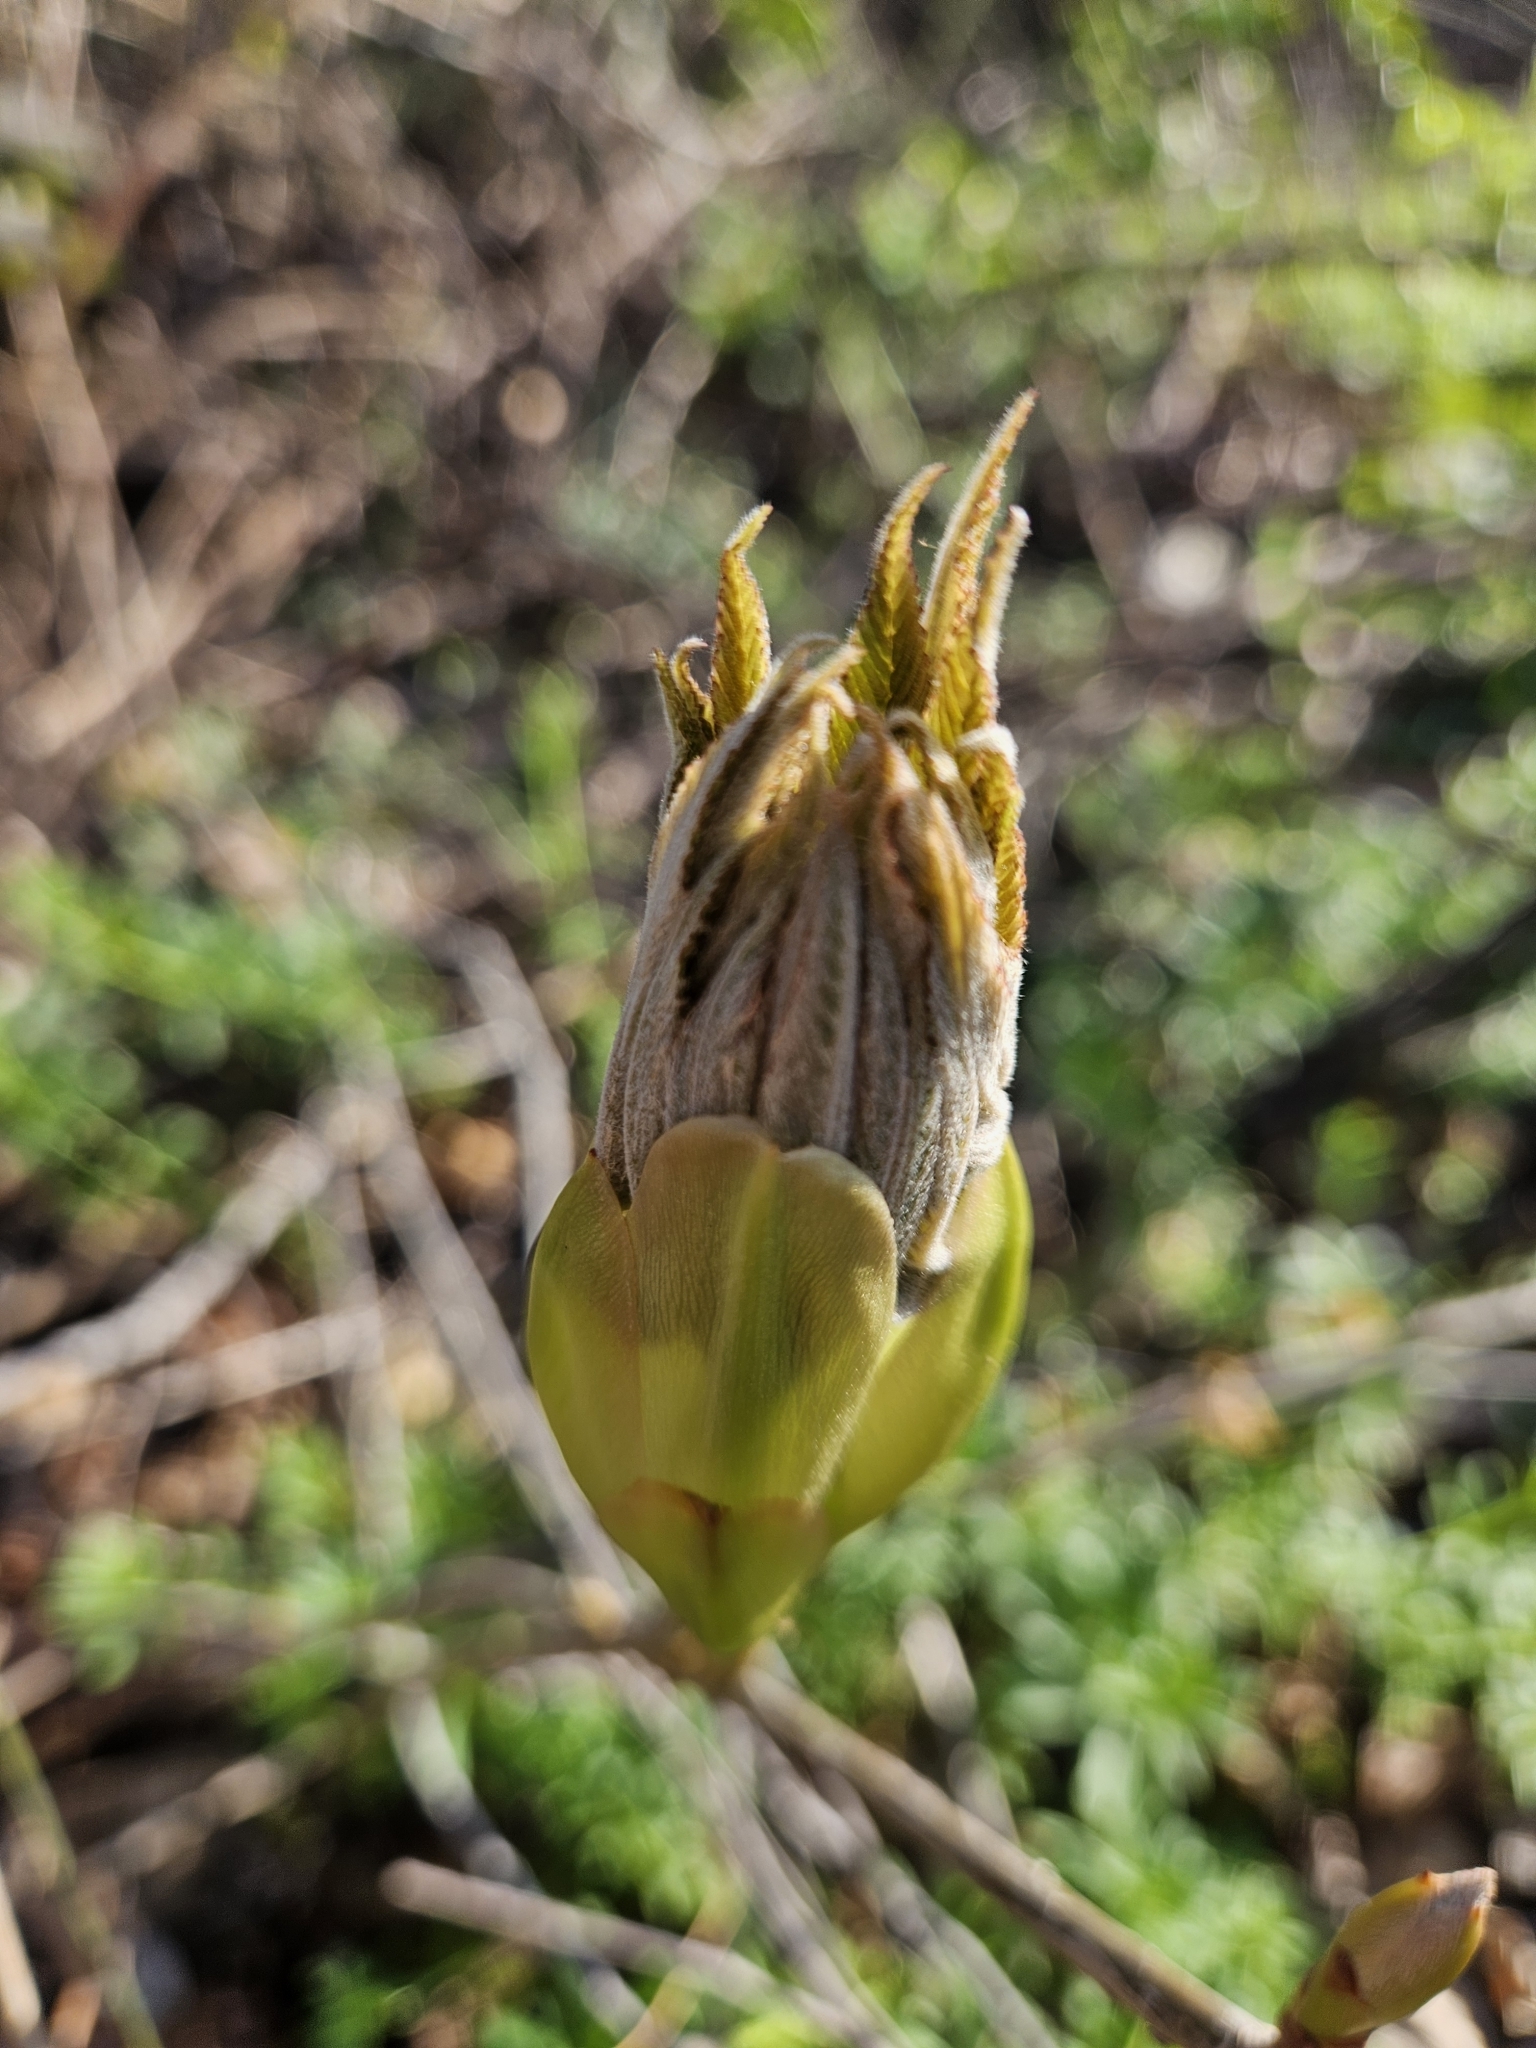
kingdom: Plantae
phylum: Tracheophyta
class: Magnoliopsida
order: Sapindales
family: Sapindaceae
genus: Aesculus
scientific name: Aesculus pavia
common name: Red buckeye
